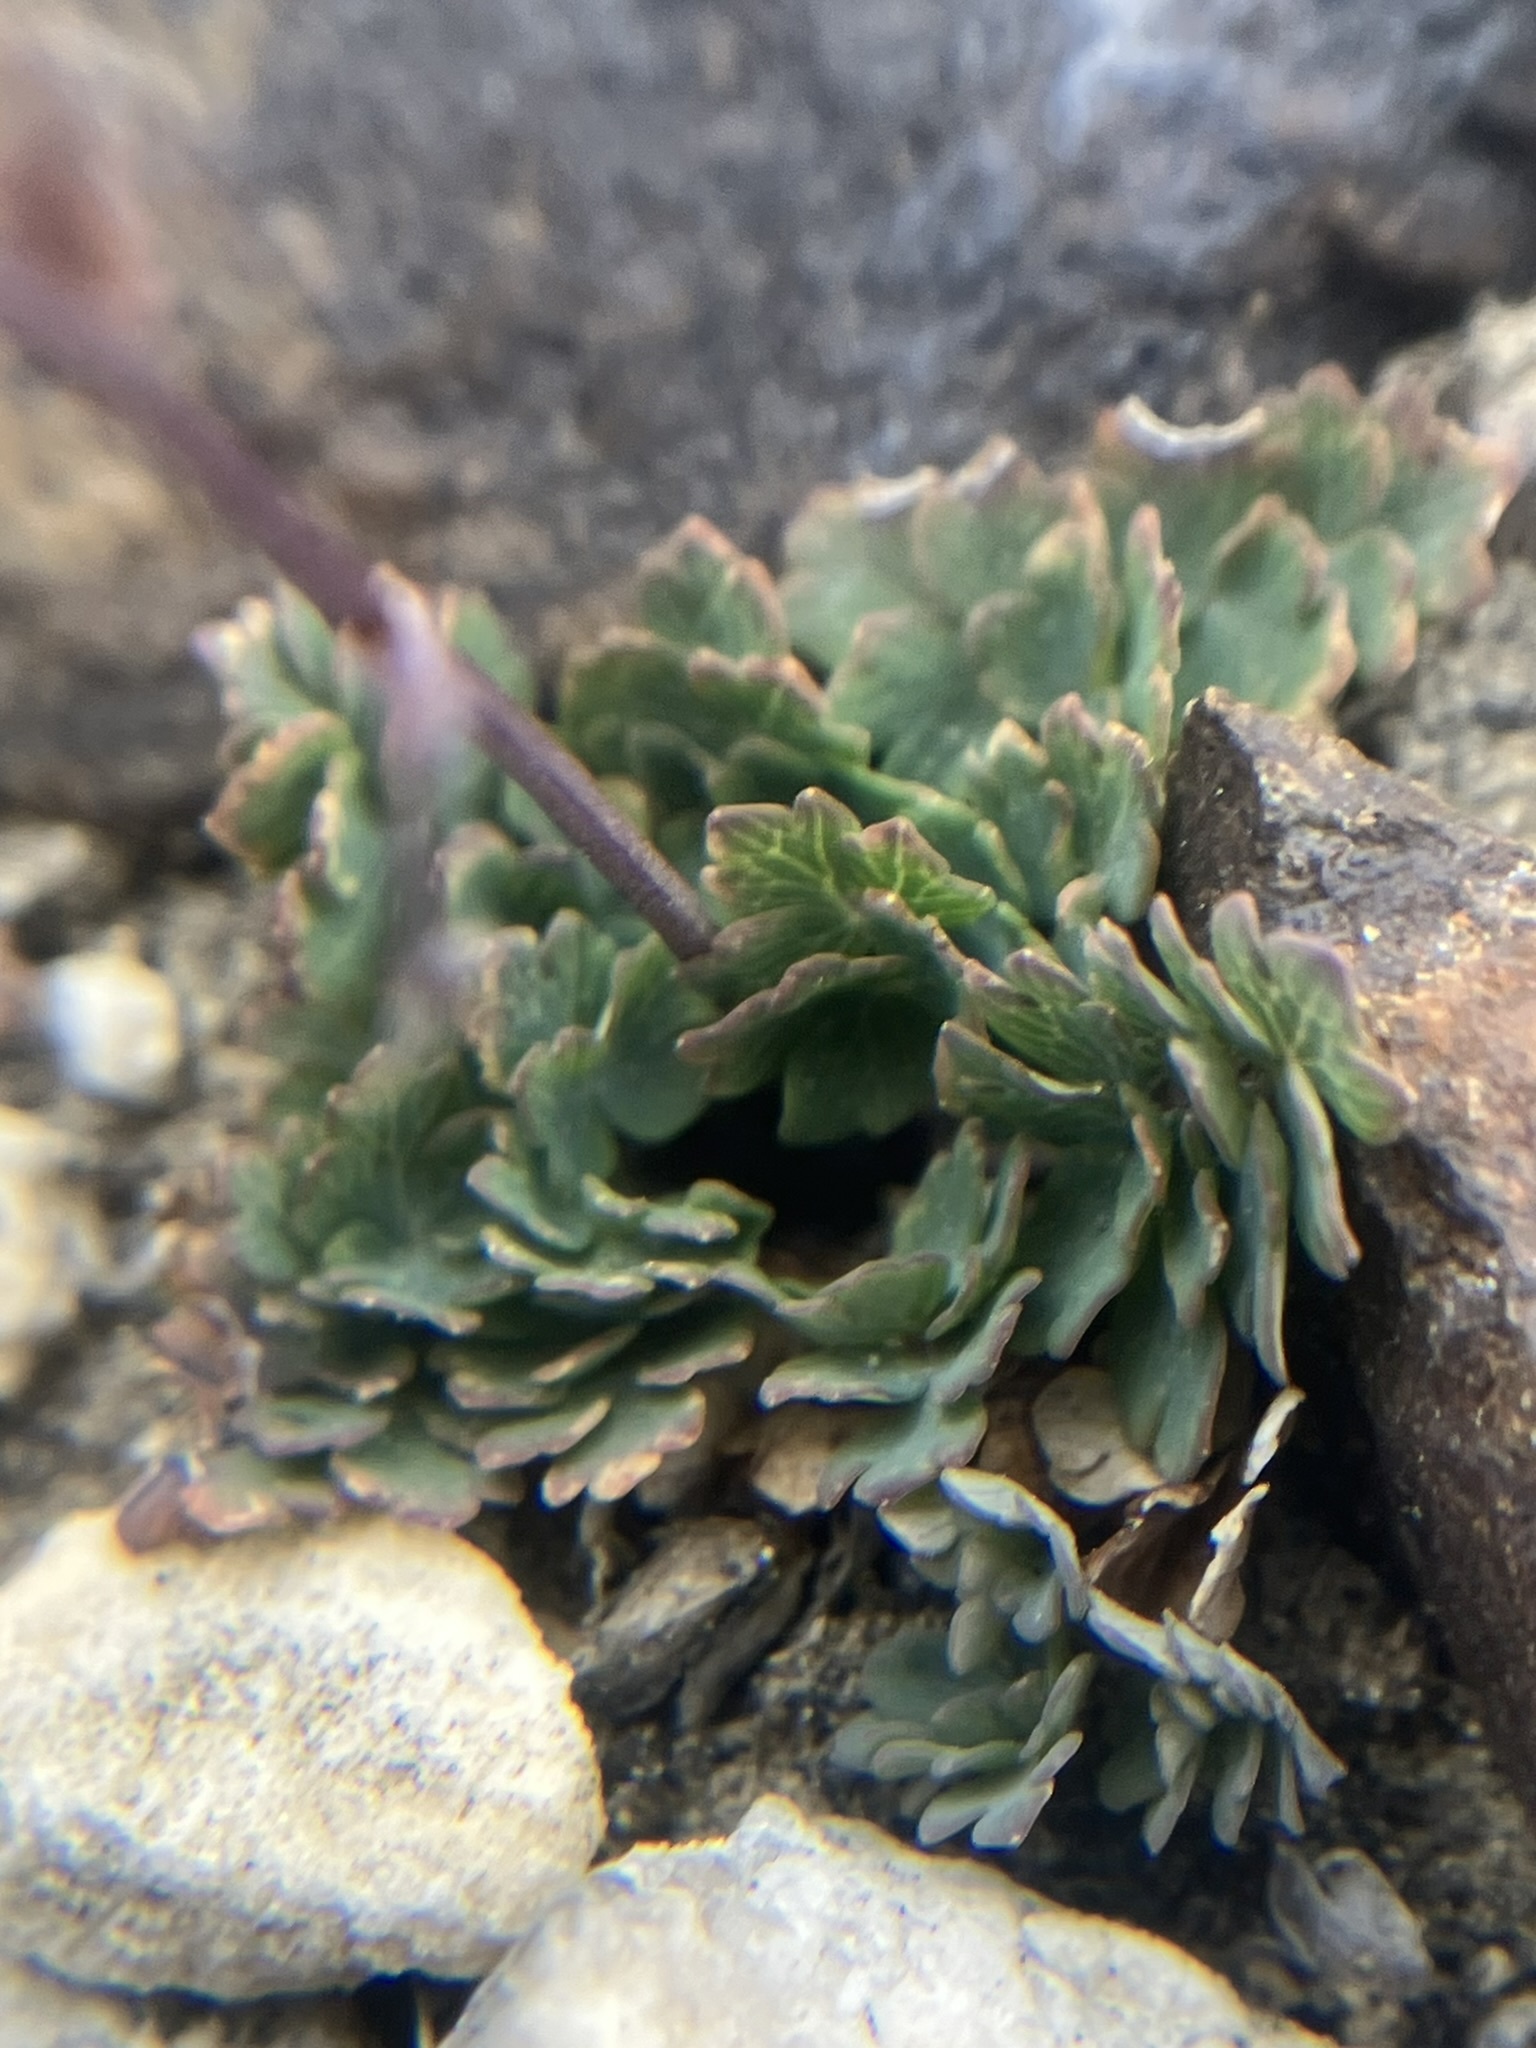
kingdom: Plantae
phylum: Tracheophyta
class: Magnoliopsida
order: Ranunculales
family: Ranunculaceae
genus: Thalictrum
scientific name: Thalictrum alpinum
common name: Alpine meadow-rue
